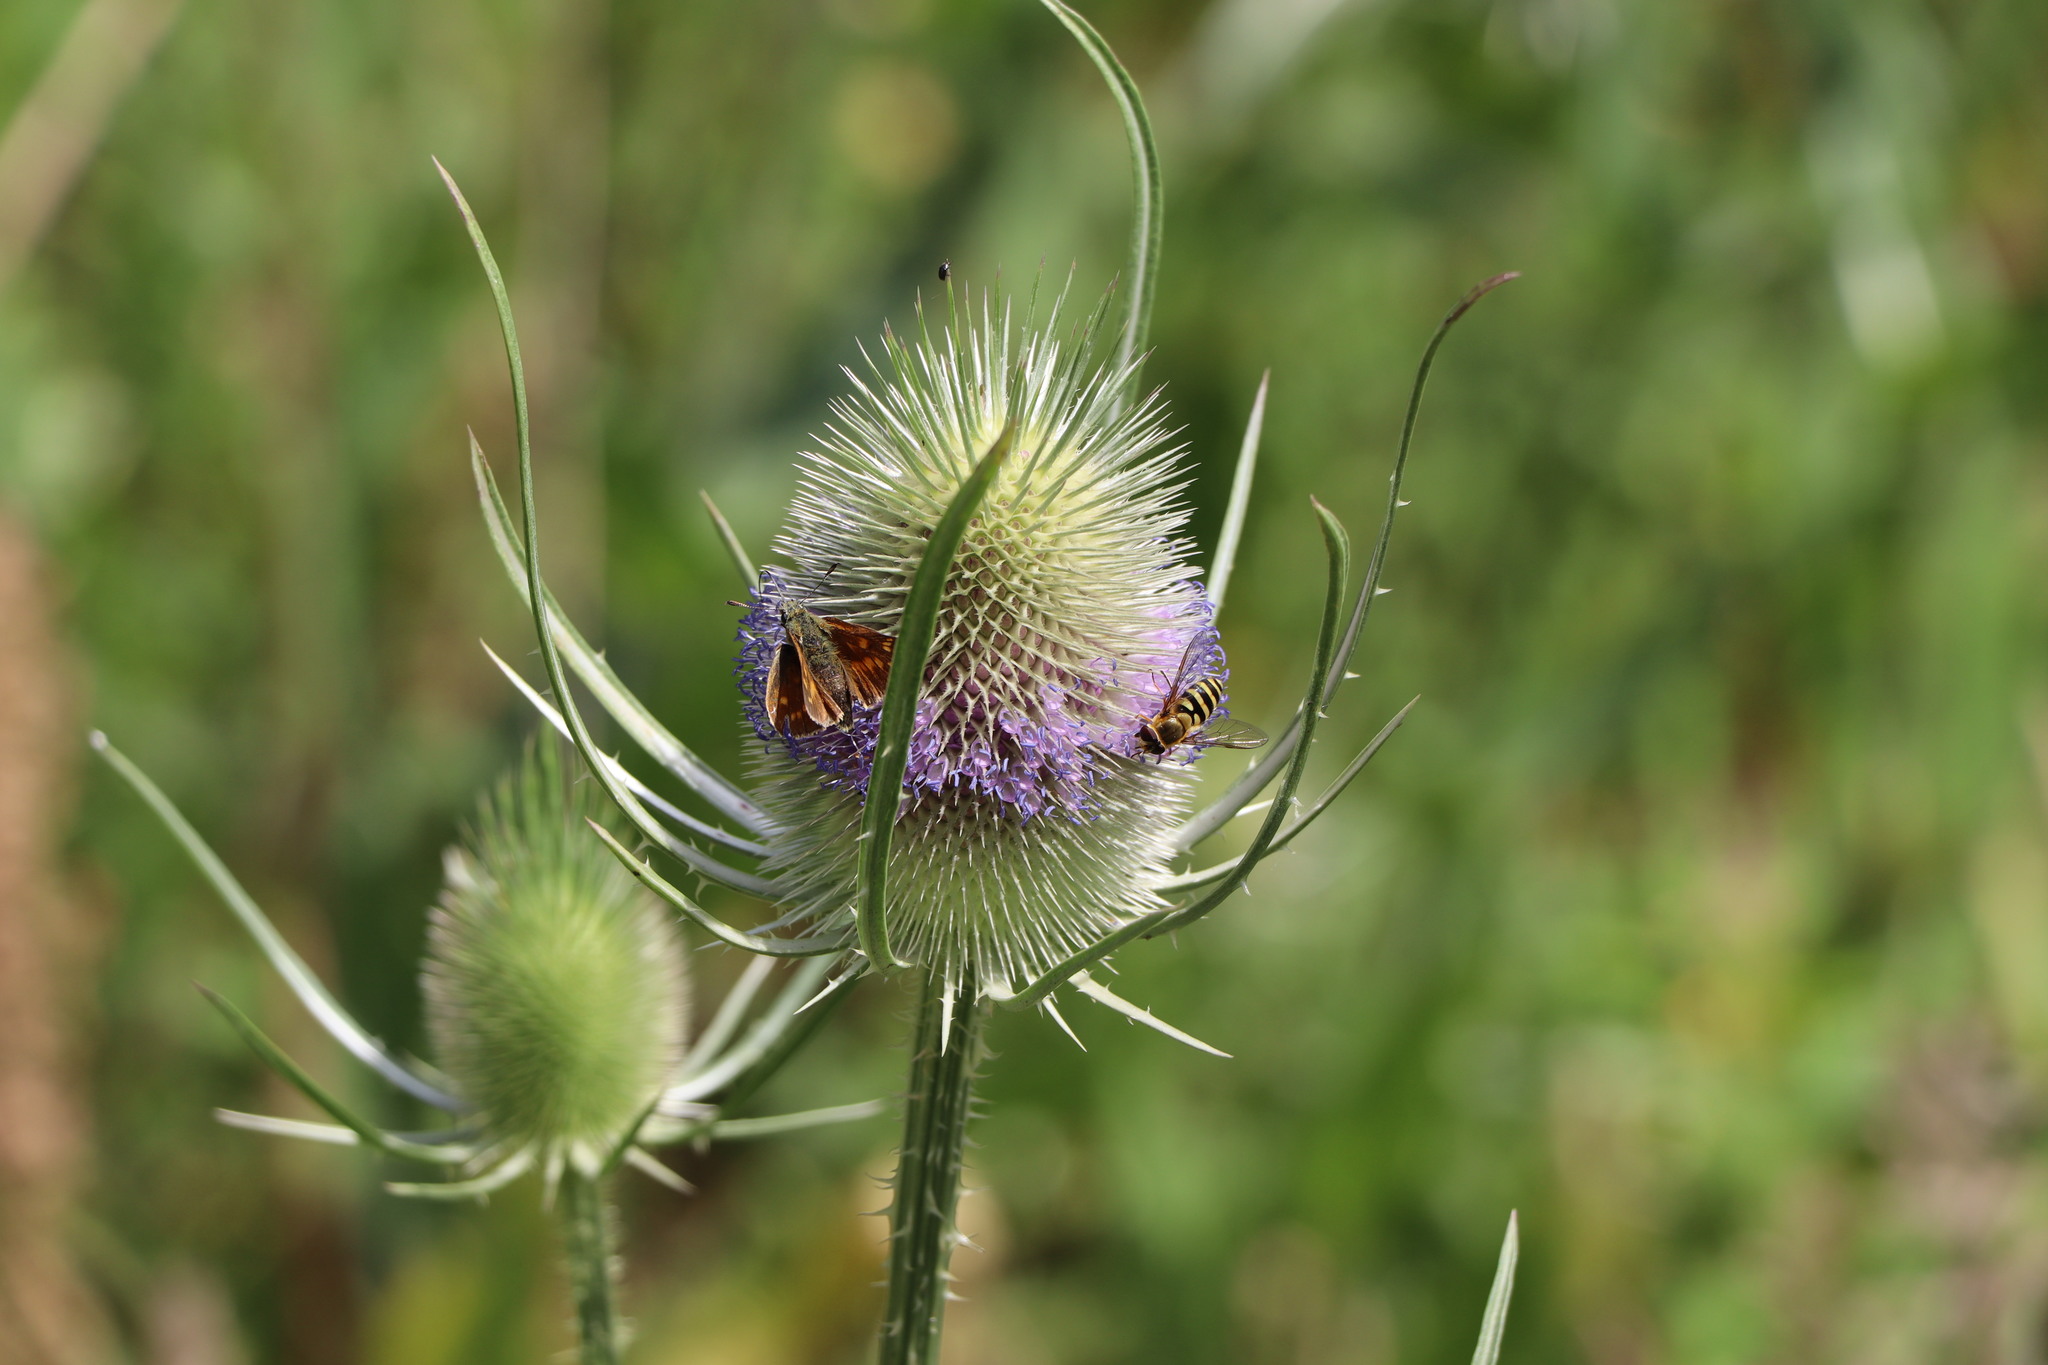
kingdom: Animalia
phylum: Arthropoda
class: Insecta
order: Lepidoptera
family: Hesperiidae
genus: Ochlodes
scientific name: Ochlodes venata
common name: Large skipper
